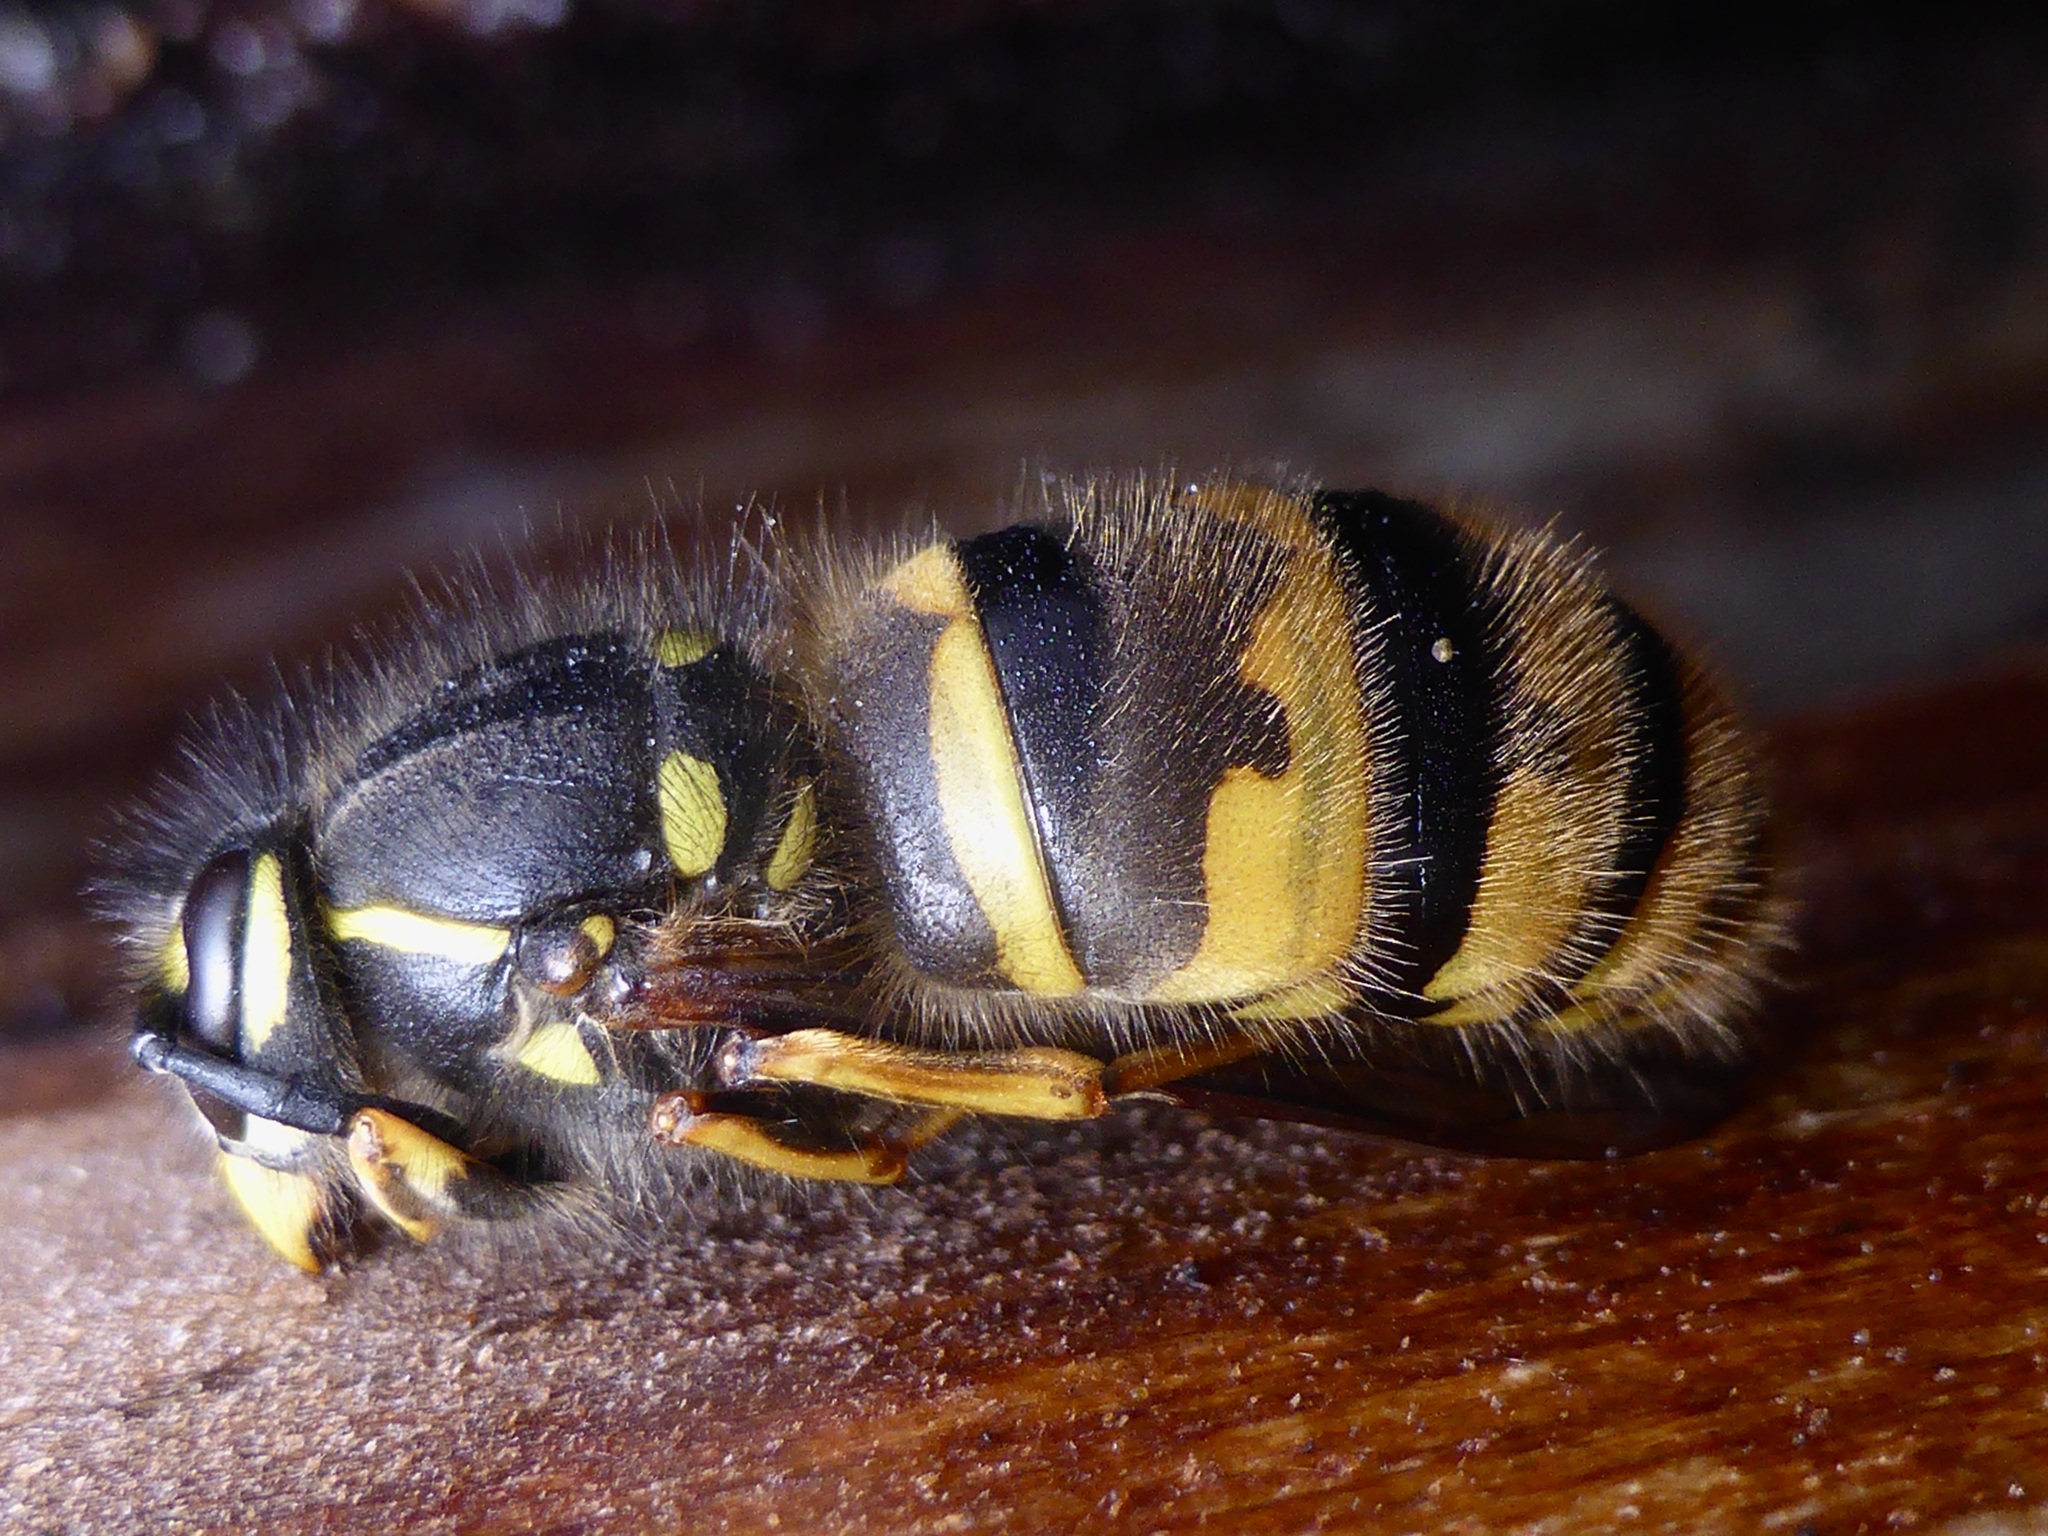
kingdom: Animalia
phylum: Arthropoda
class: Insecta
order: Hymenoptera
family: Vespidae
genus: Vespula
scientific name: Vespula vulgaris
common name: Common wasp
